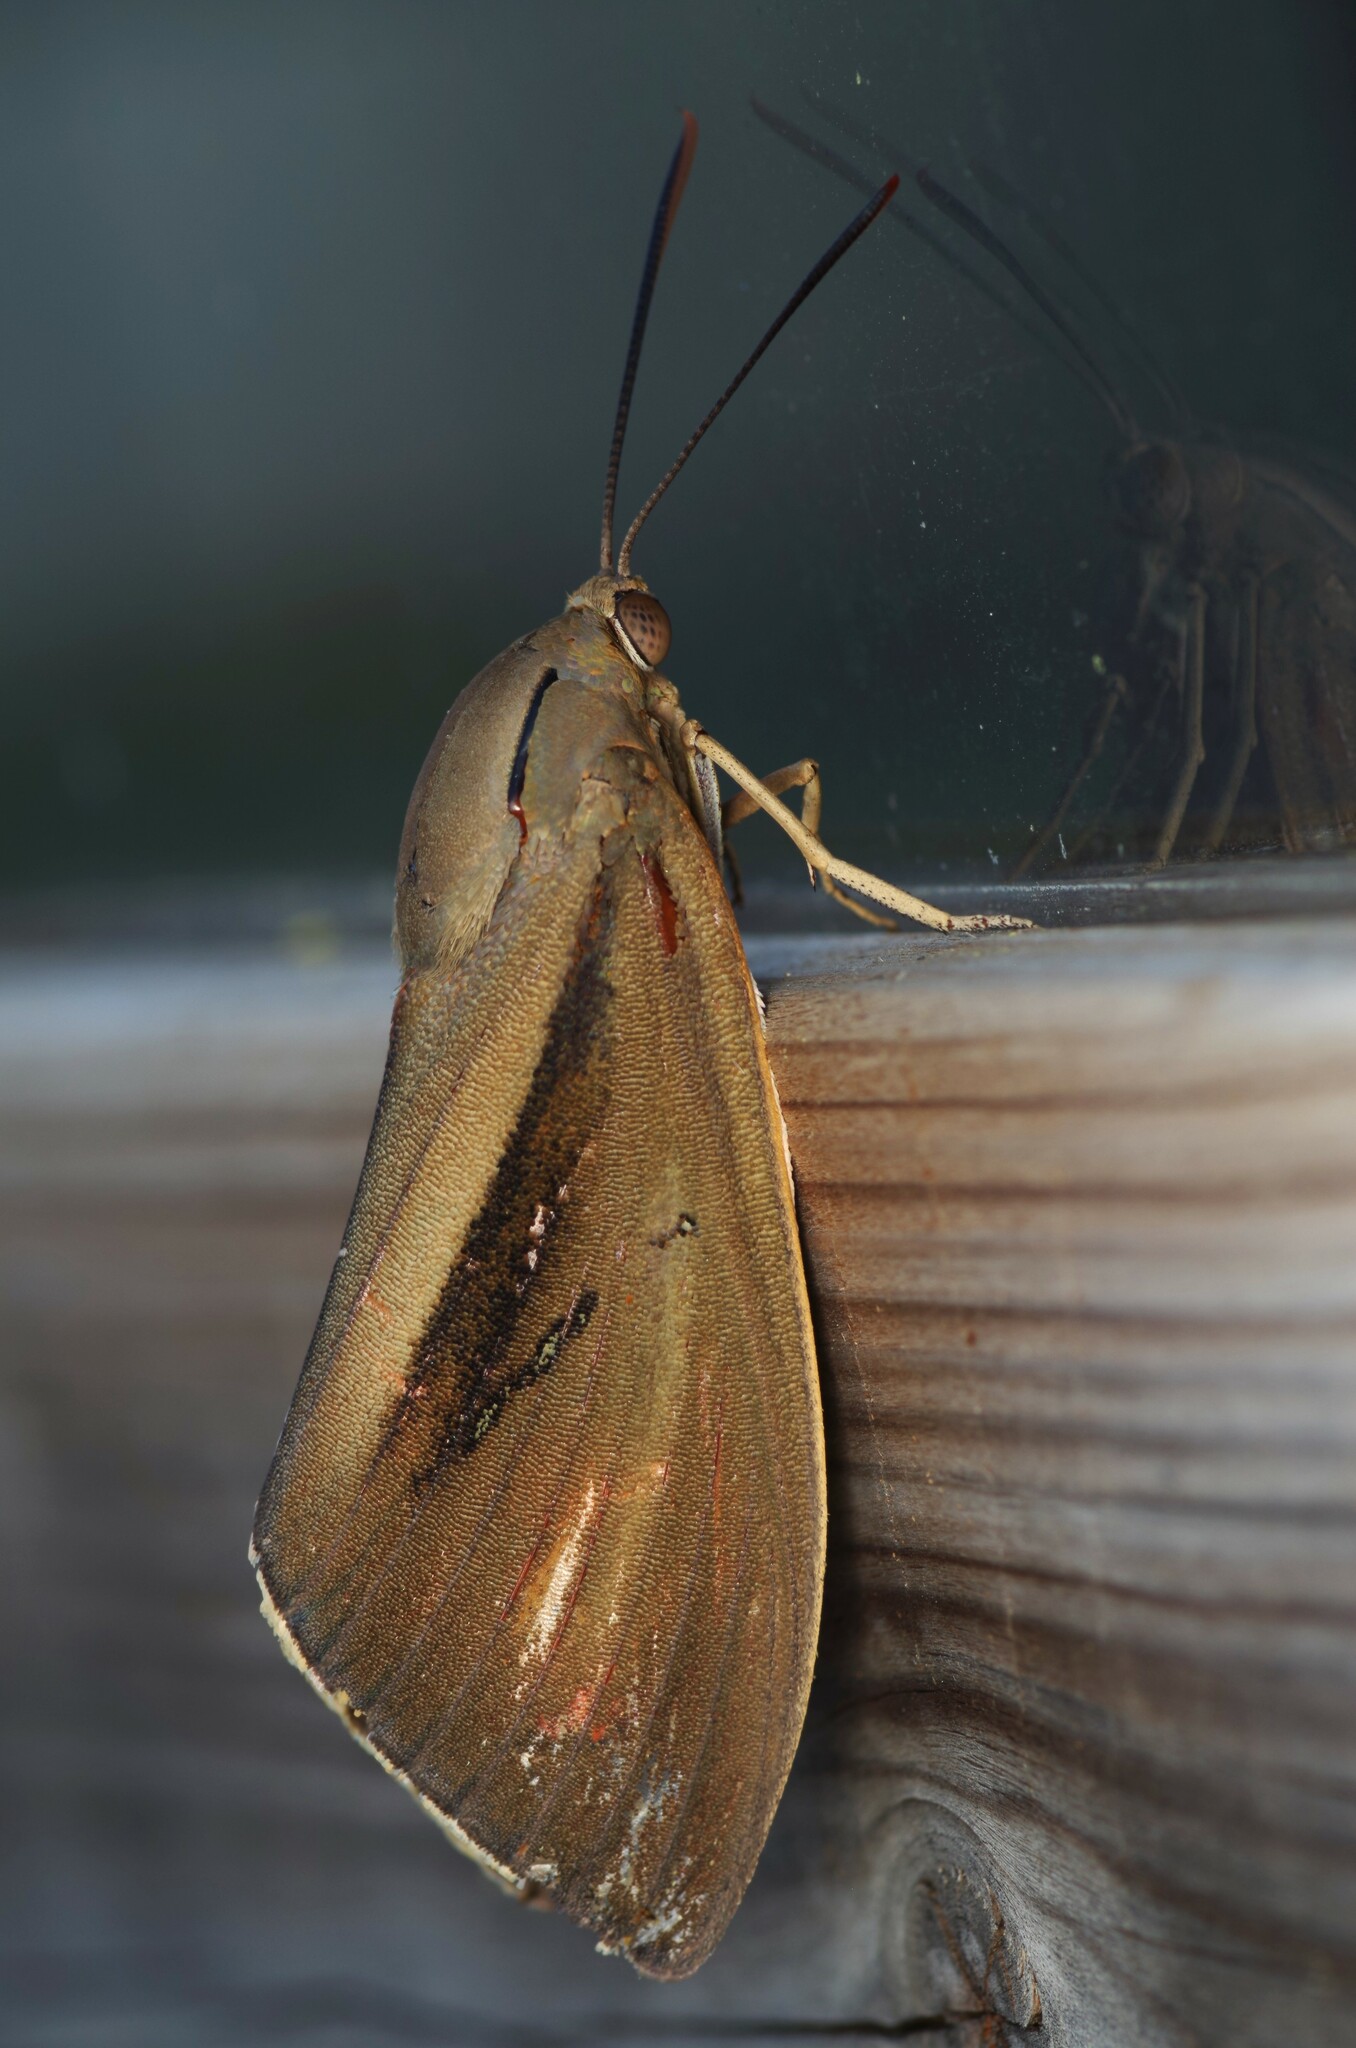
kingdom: Animalia
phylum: Arthropoda
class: Insecta
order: Lepidoptera
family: Castniidae
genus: Paysandisia
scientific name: Paysandisia archon
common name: Palm moth
